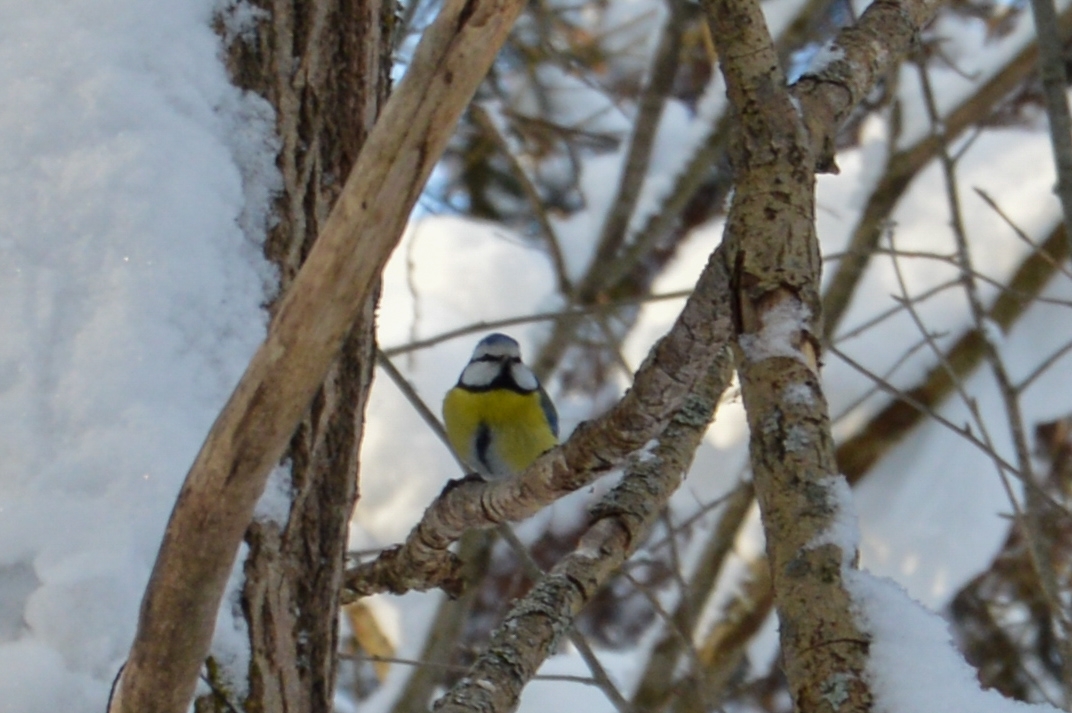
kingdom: Animalia
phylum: Chordata
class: Aves
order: Passeriformes
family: Paridae
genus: Cyanistes
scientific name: Cyanistes caeruleus
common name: Eurasian blue tit
